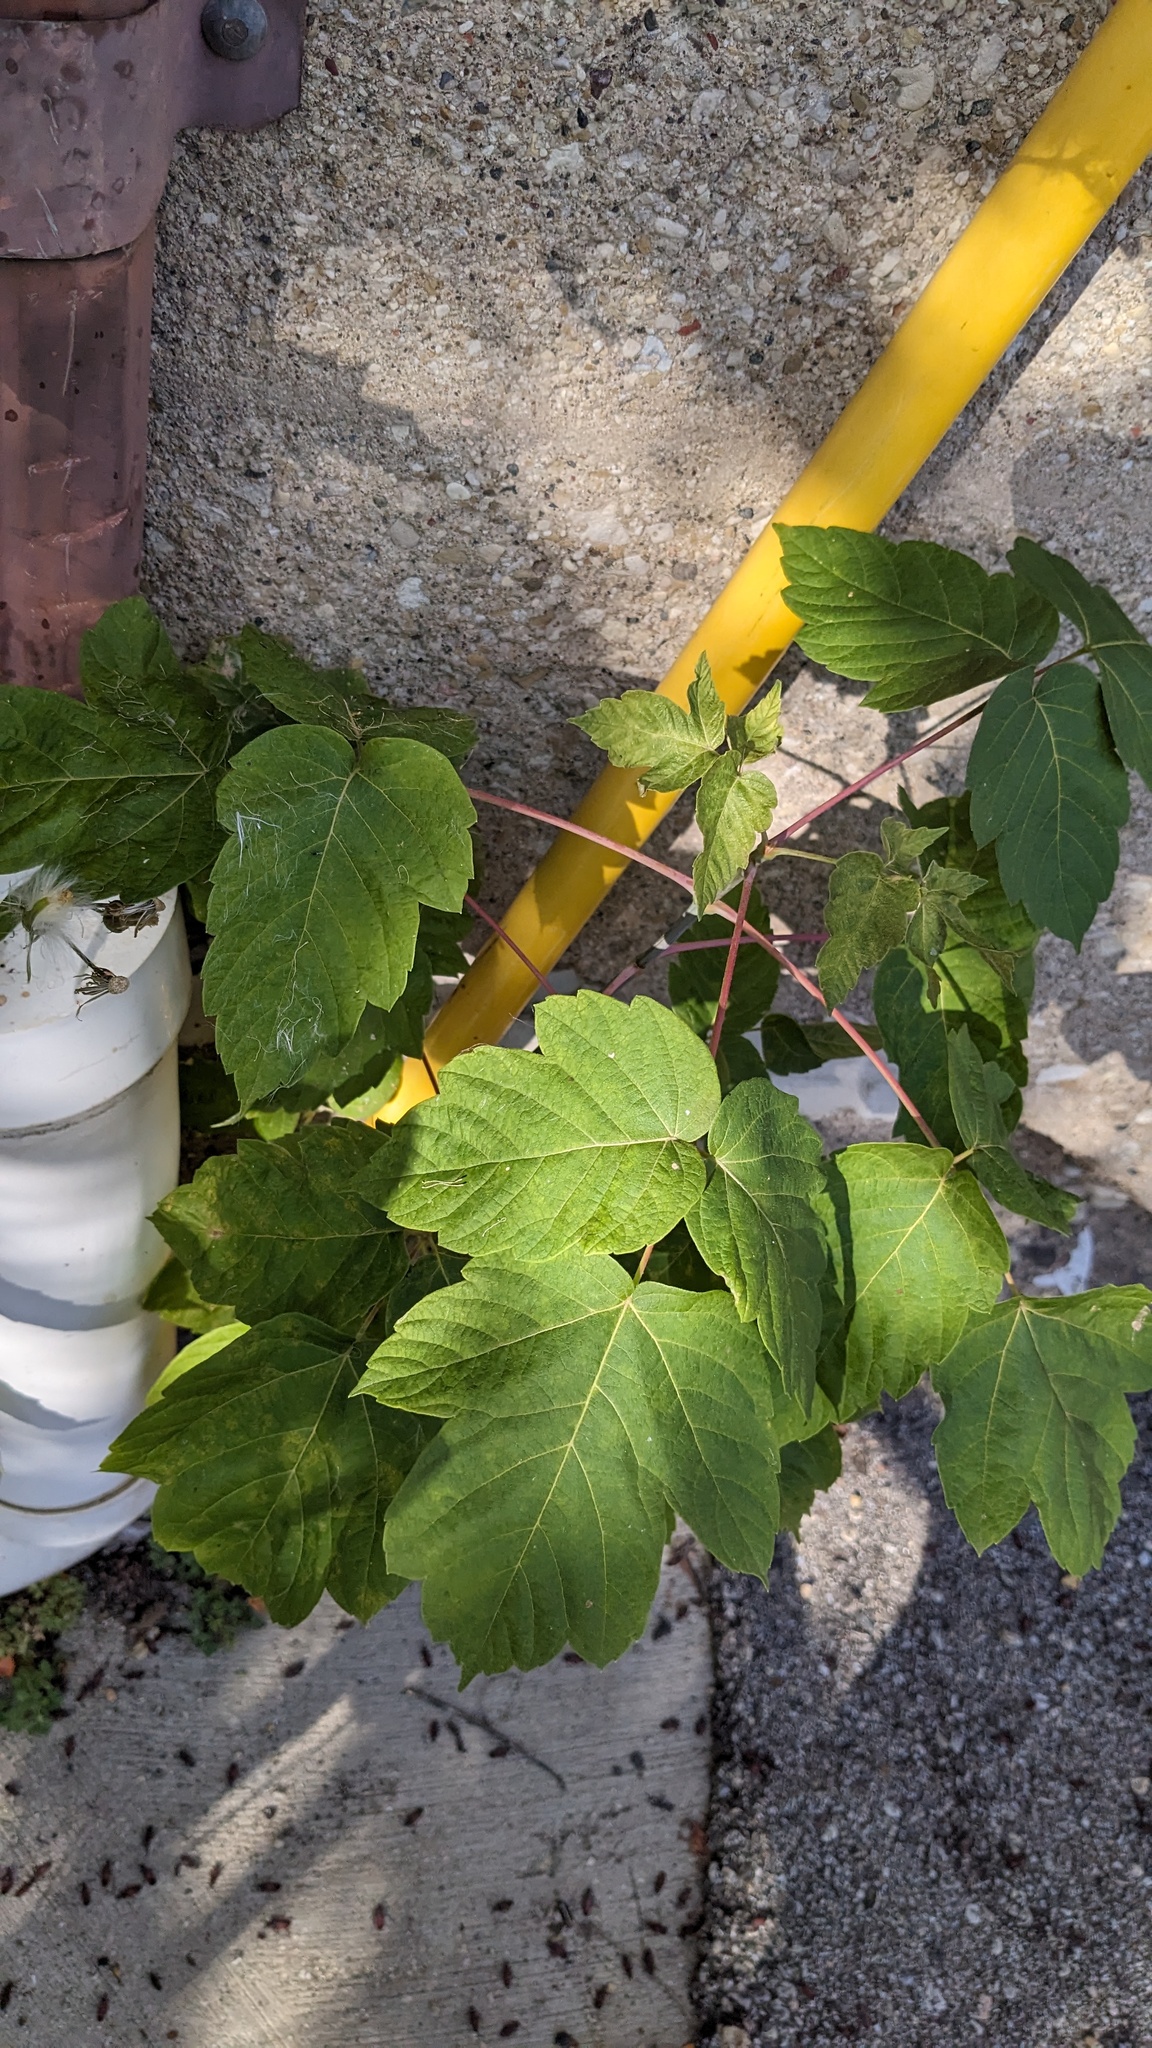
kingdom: Plantae
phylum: Tracheophyta
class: Magnoliopsida
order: Sapindales
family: Sapindaceae
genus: Acer
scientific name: Acer negundo
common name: Ashleaf maple
